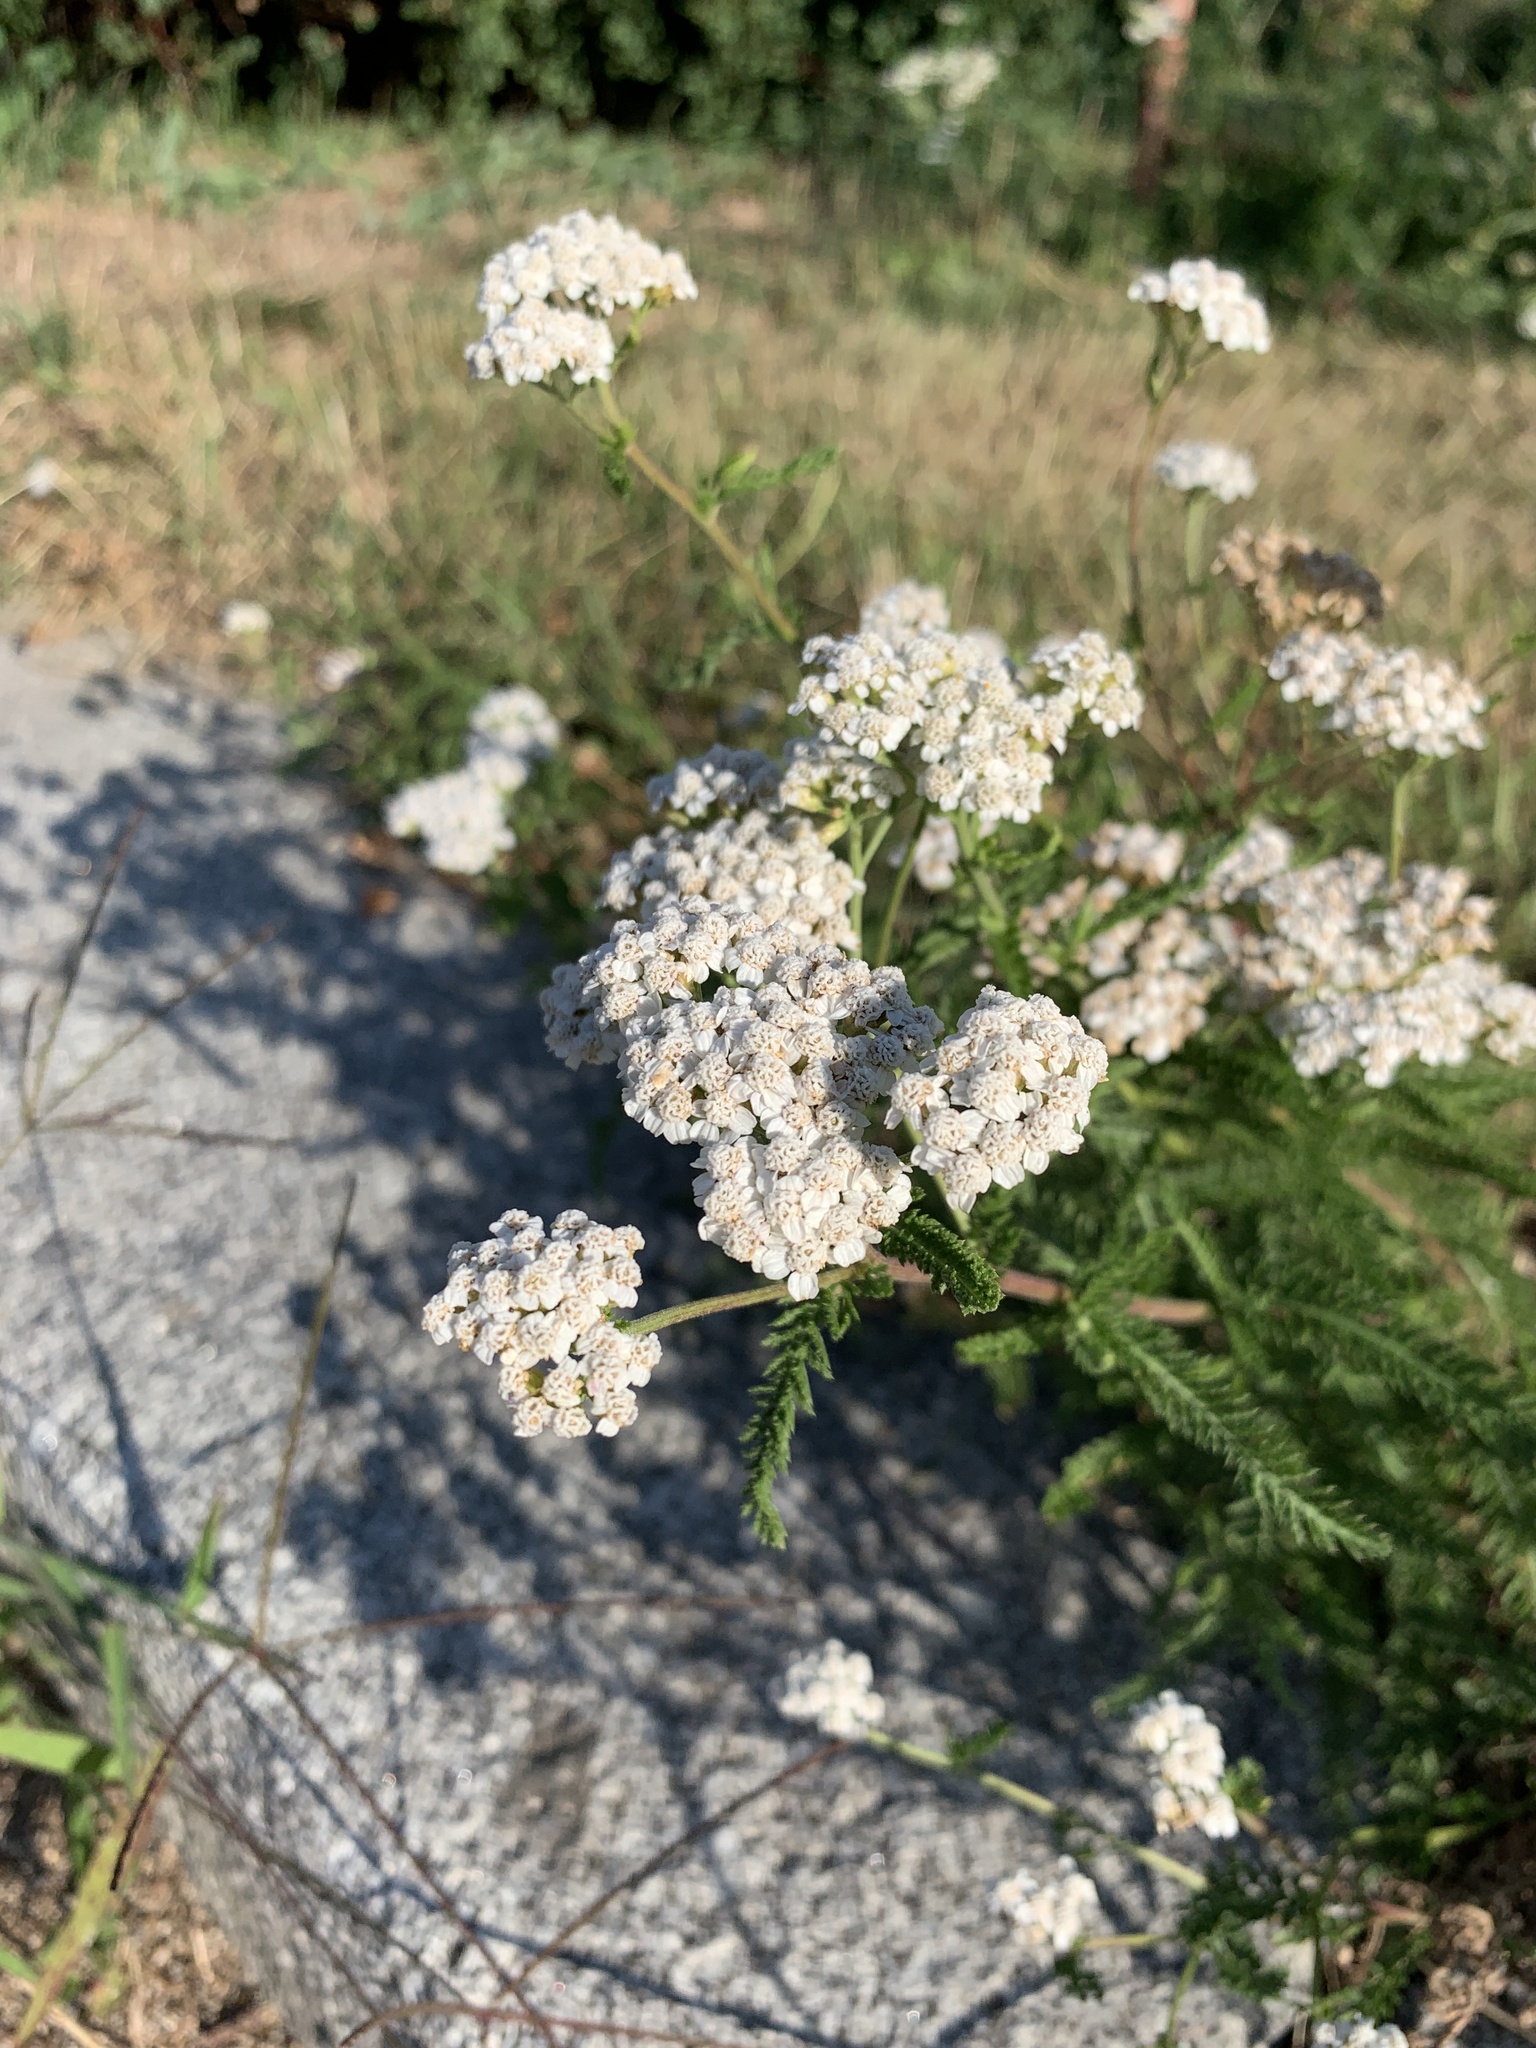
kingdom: Plantae
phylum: Tracheophyta
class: Magnoliopsida
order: Asterales
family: Asteraceae
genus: Achillea
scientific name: Achillea millefolium
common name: Yarrow
